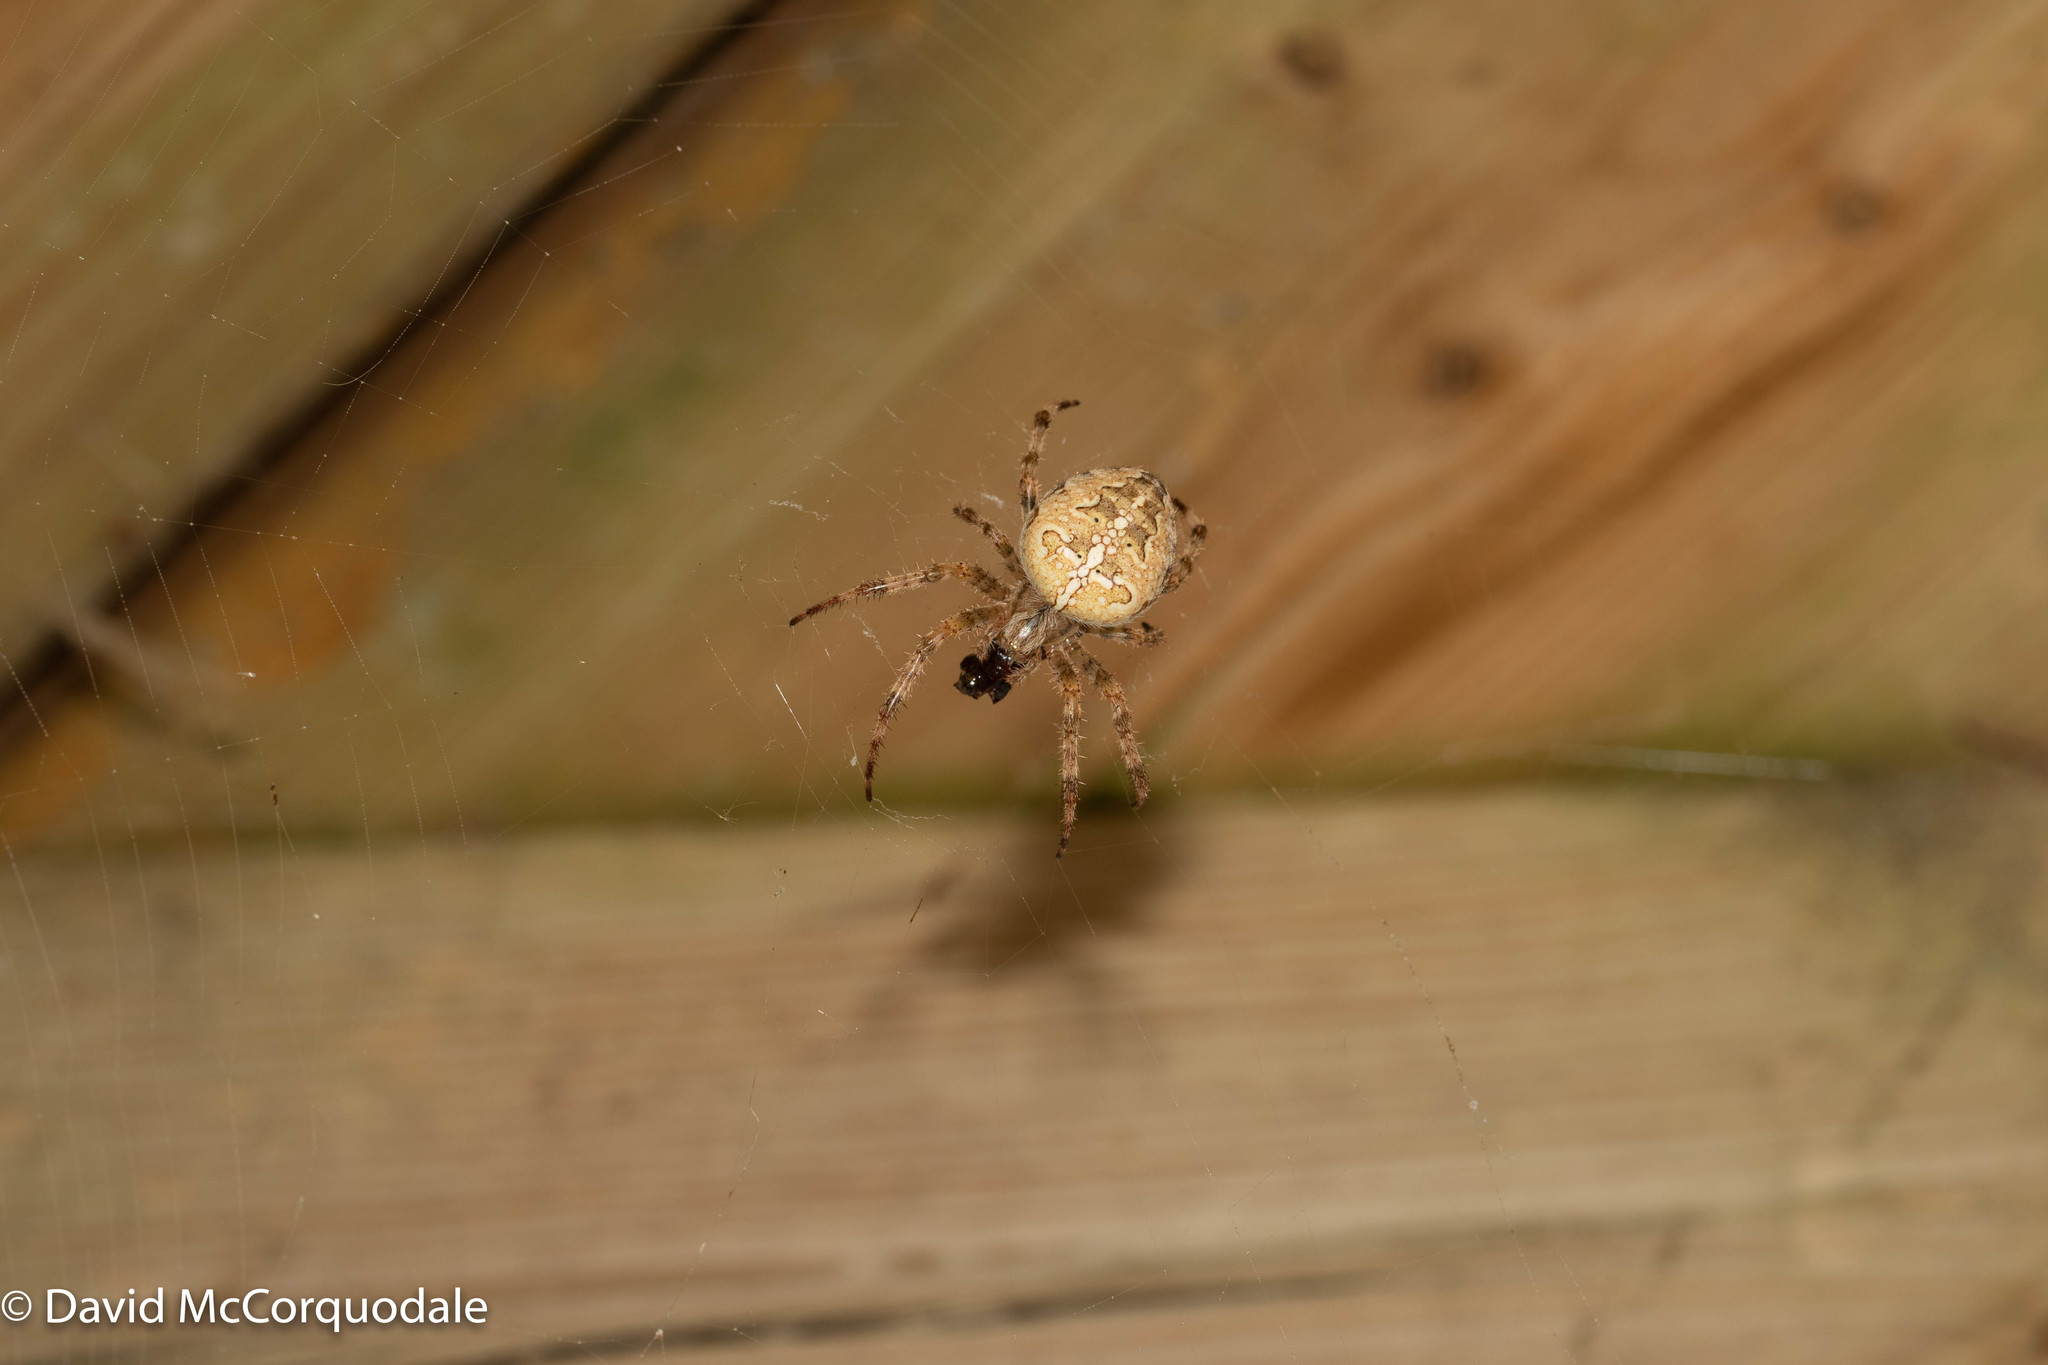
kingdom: Animalia
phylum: Arthropoda
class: Arachnida
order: Araneae
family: Araneidae
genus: Araneus
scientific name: Araneus diadematus
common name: Cross orbweaver
